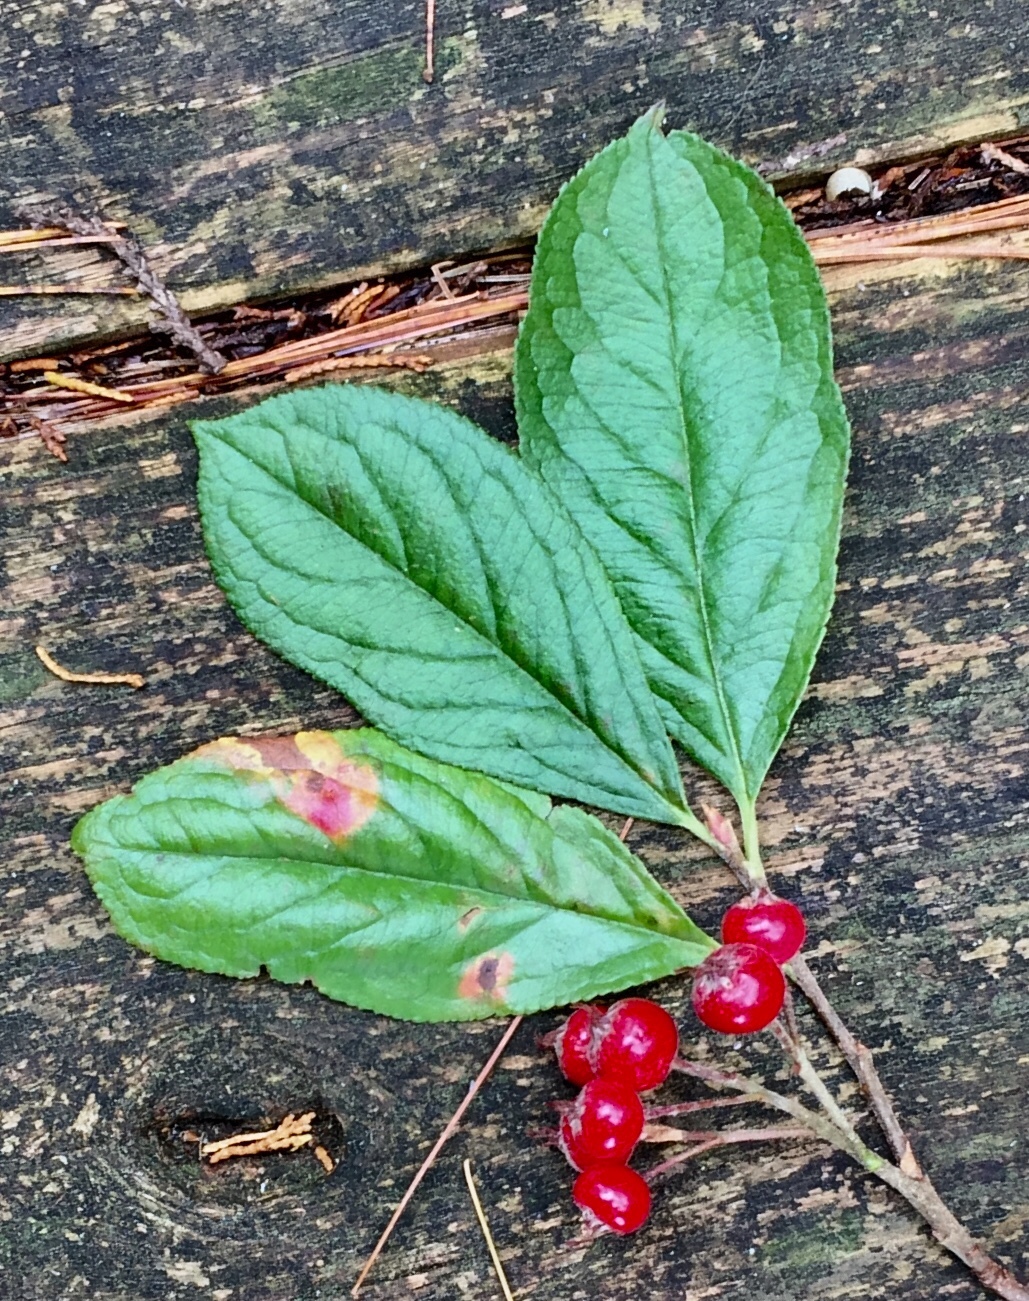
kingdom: Plantae
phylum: Tracheophyta
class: Magnoliopsida
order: Rosales
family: Rosaceae
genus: Aronia
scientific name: Aronia arbutifolia
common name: Red chokeberry
